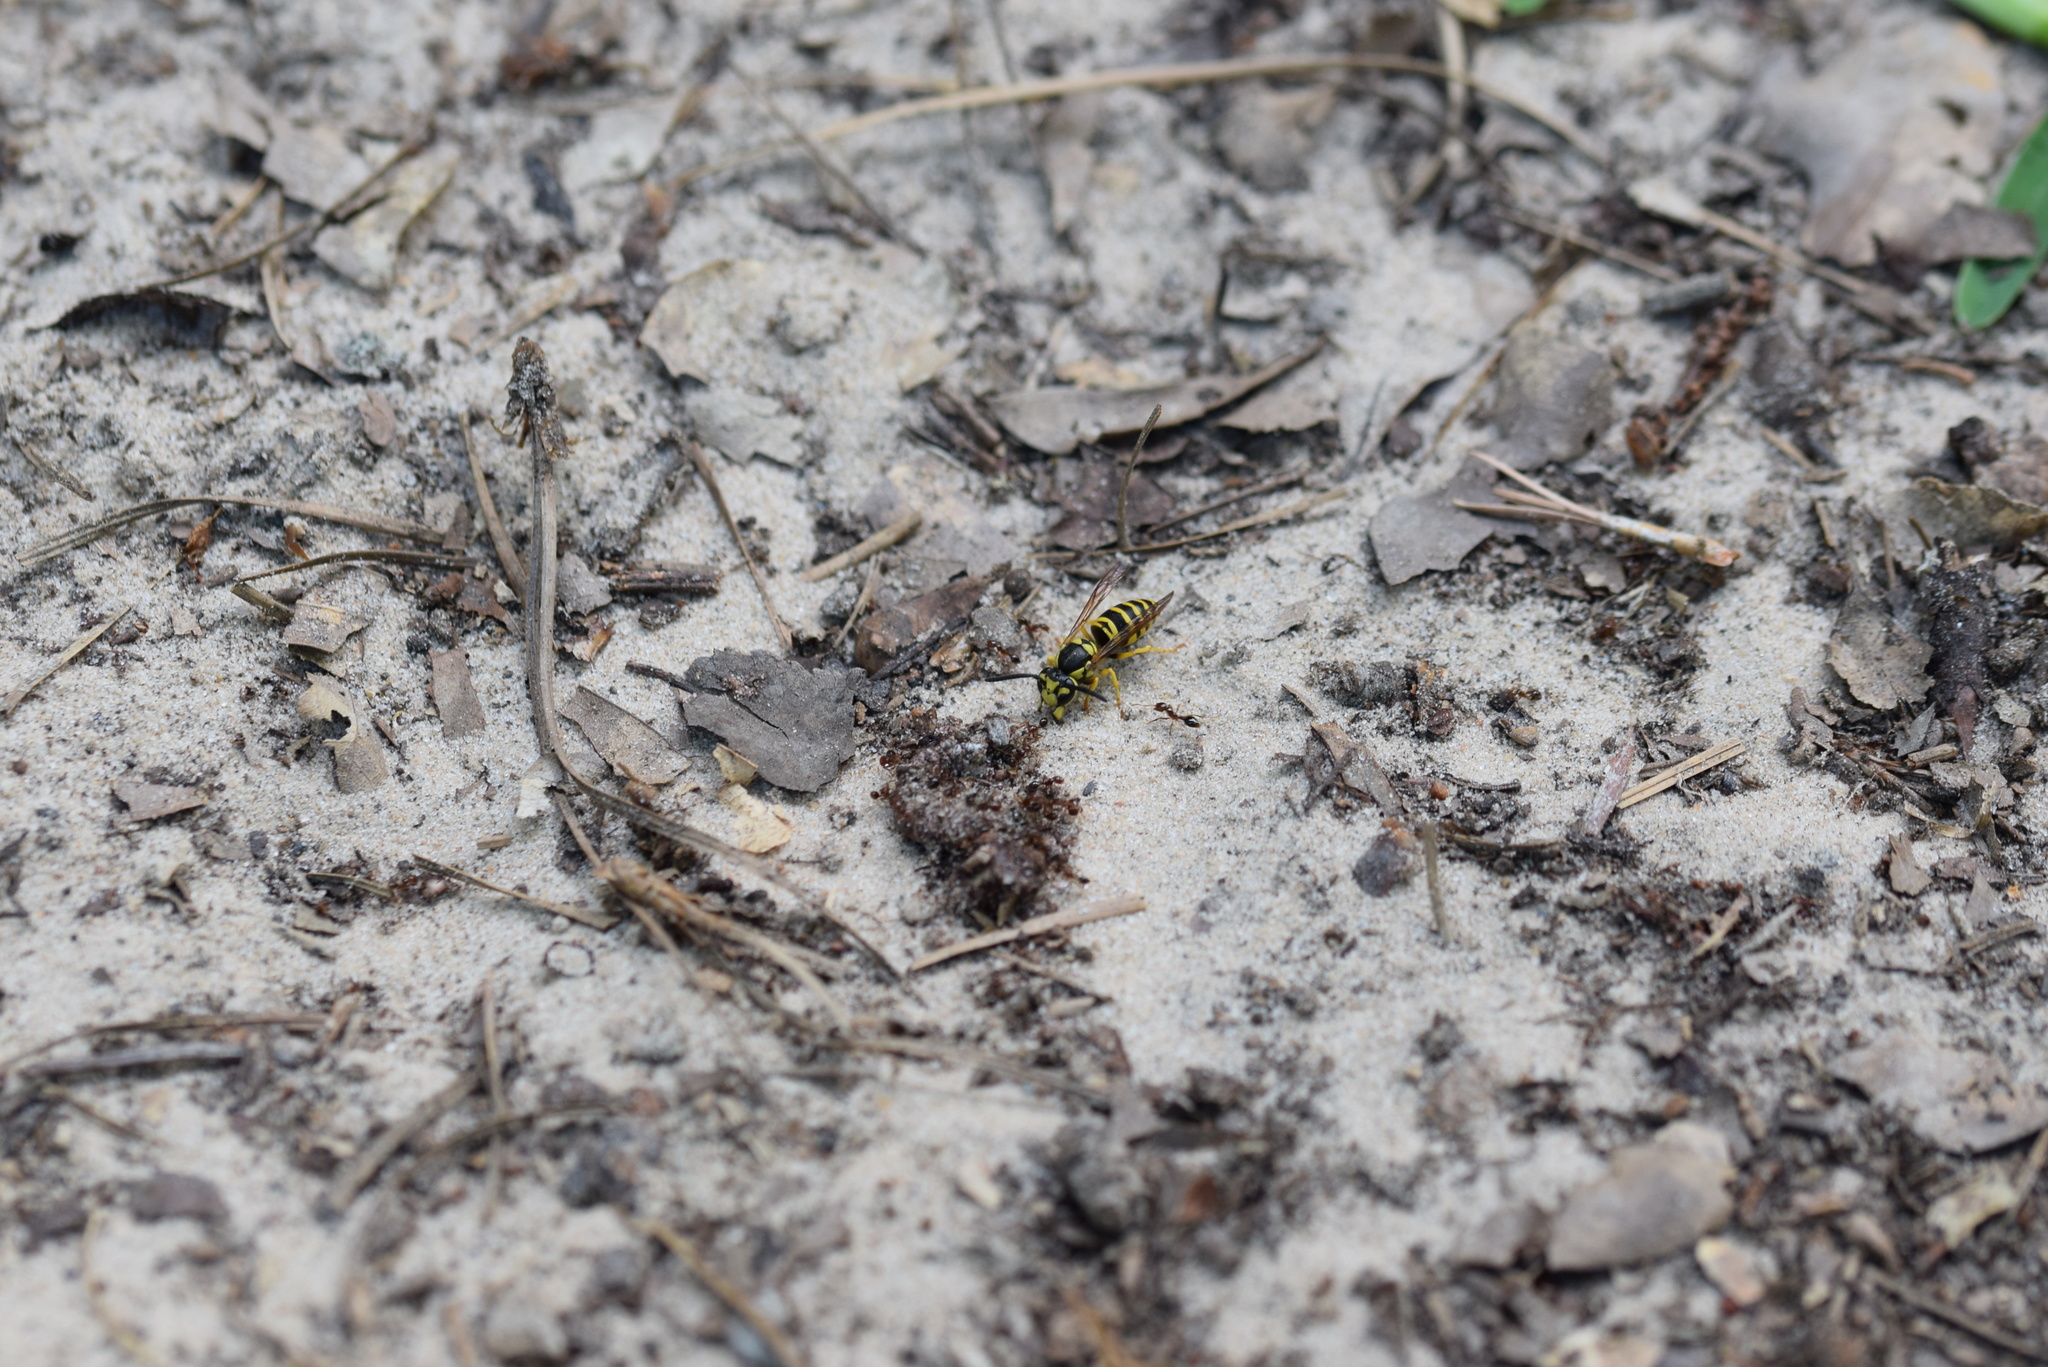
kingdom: Animalia
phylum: Arthropoda
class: Insecta
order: Hymenoptera
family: Vespidae
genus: Vespula
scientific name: Vespula maculifrons
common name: Eastern yellowjacket
